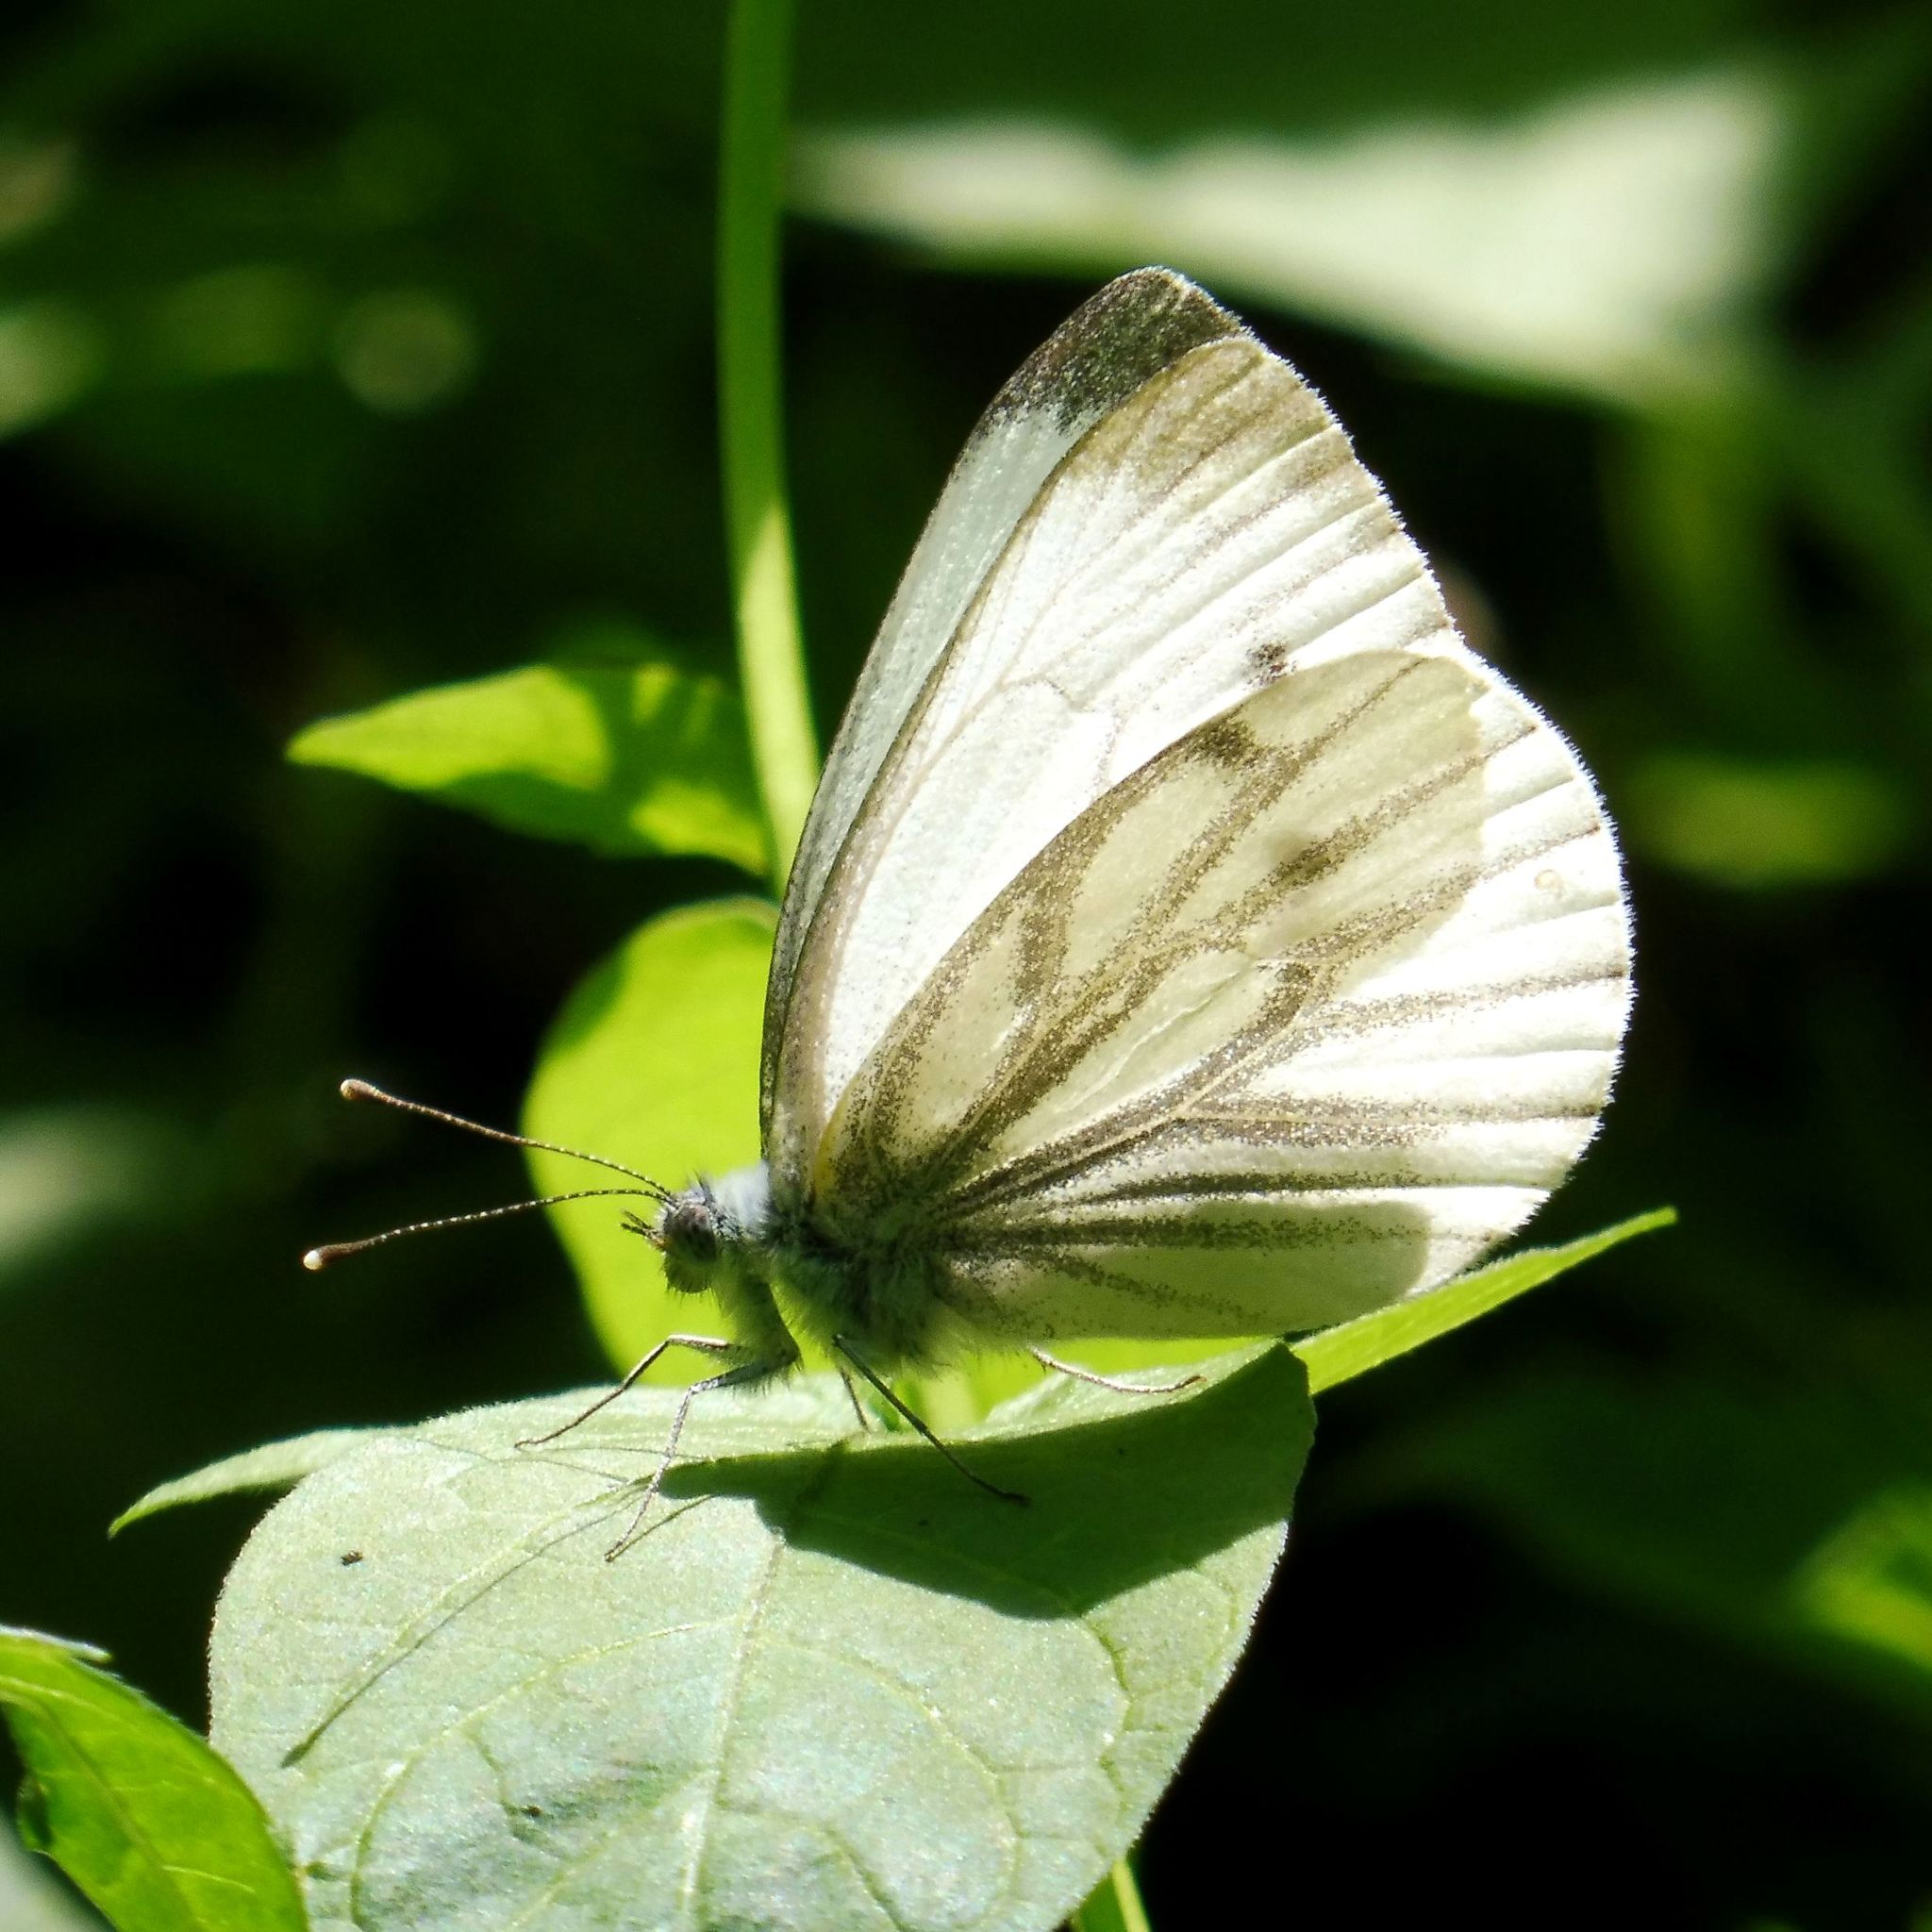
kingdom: Animalia
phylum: Arthropoda
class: Insecta
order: Lepidoptera
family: Pieridae
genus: Pieris
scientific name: Pieris napi
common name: Green-veined white
